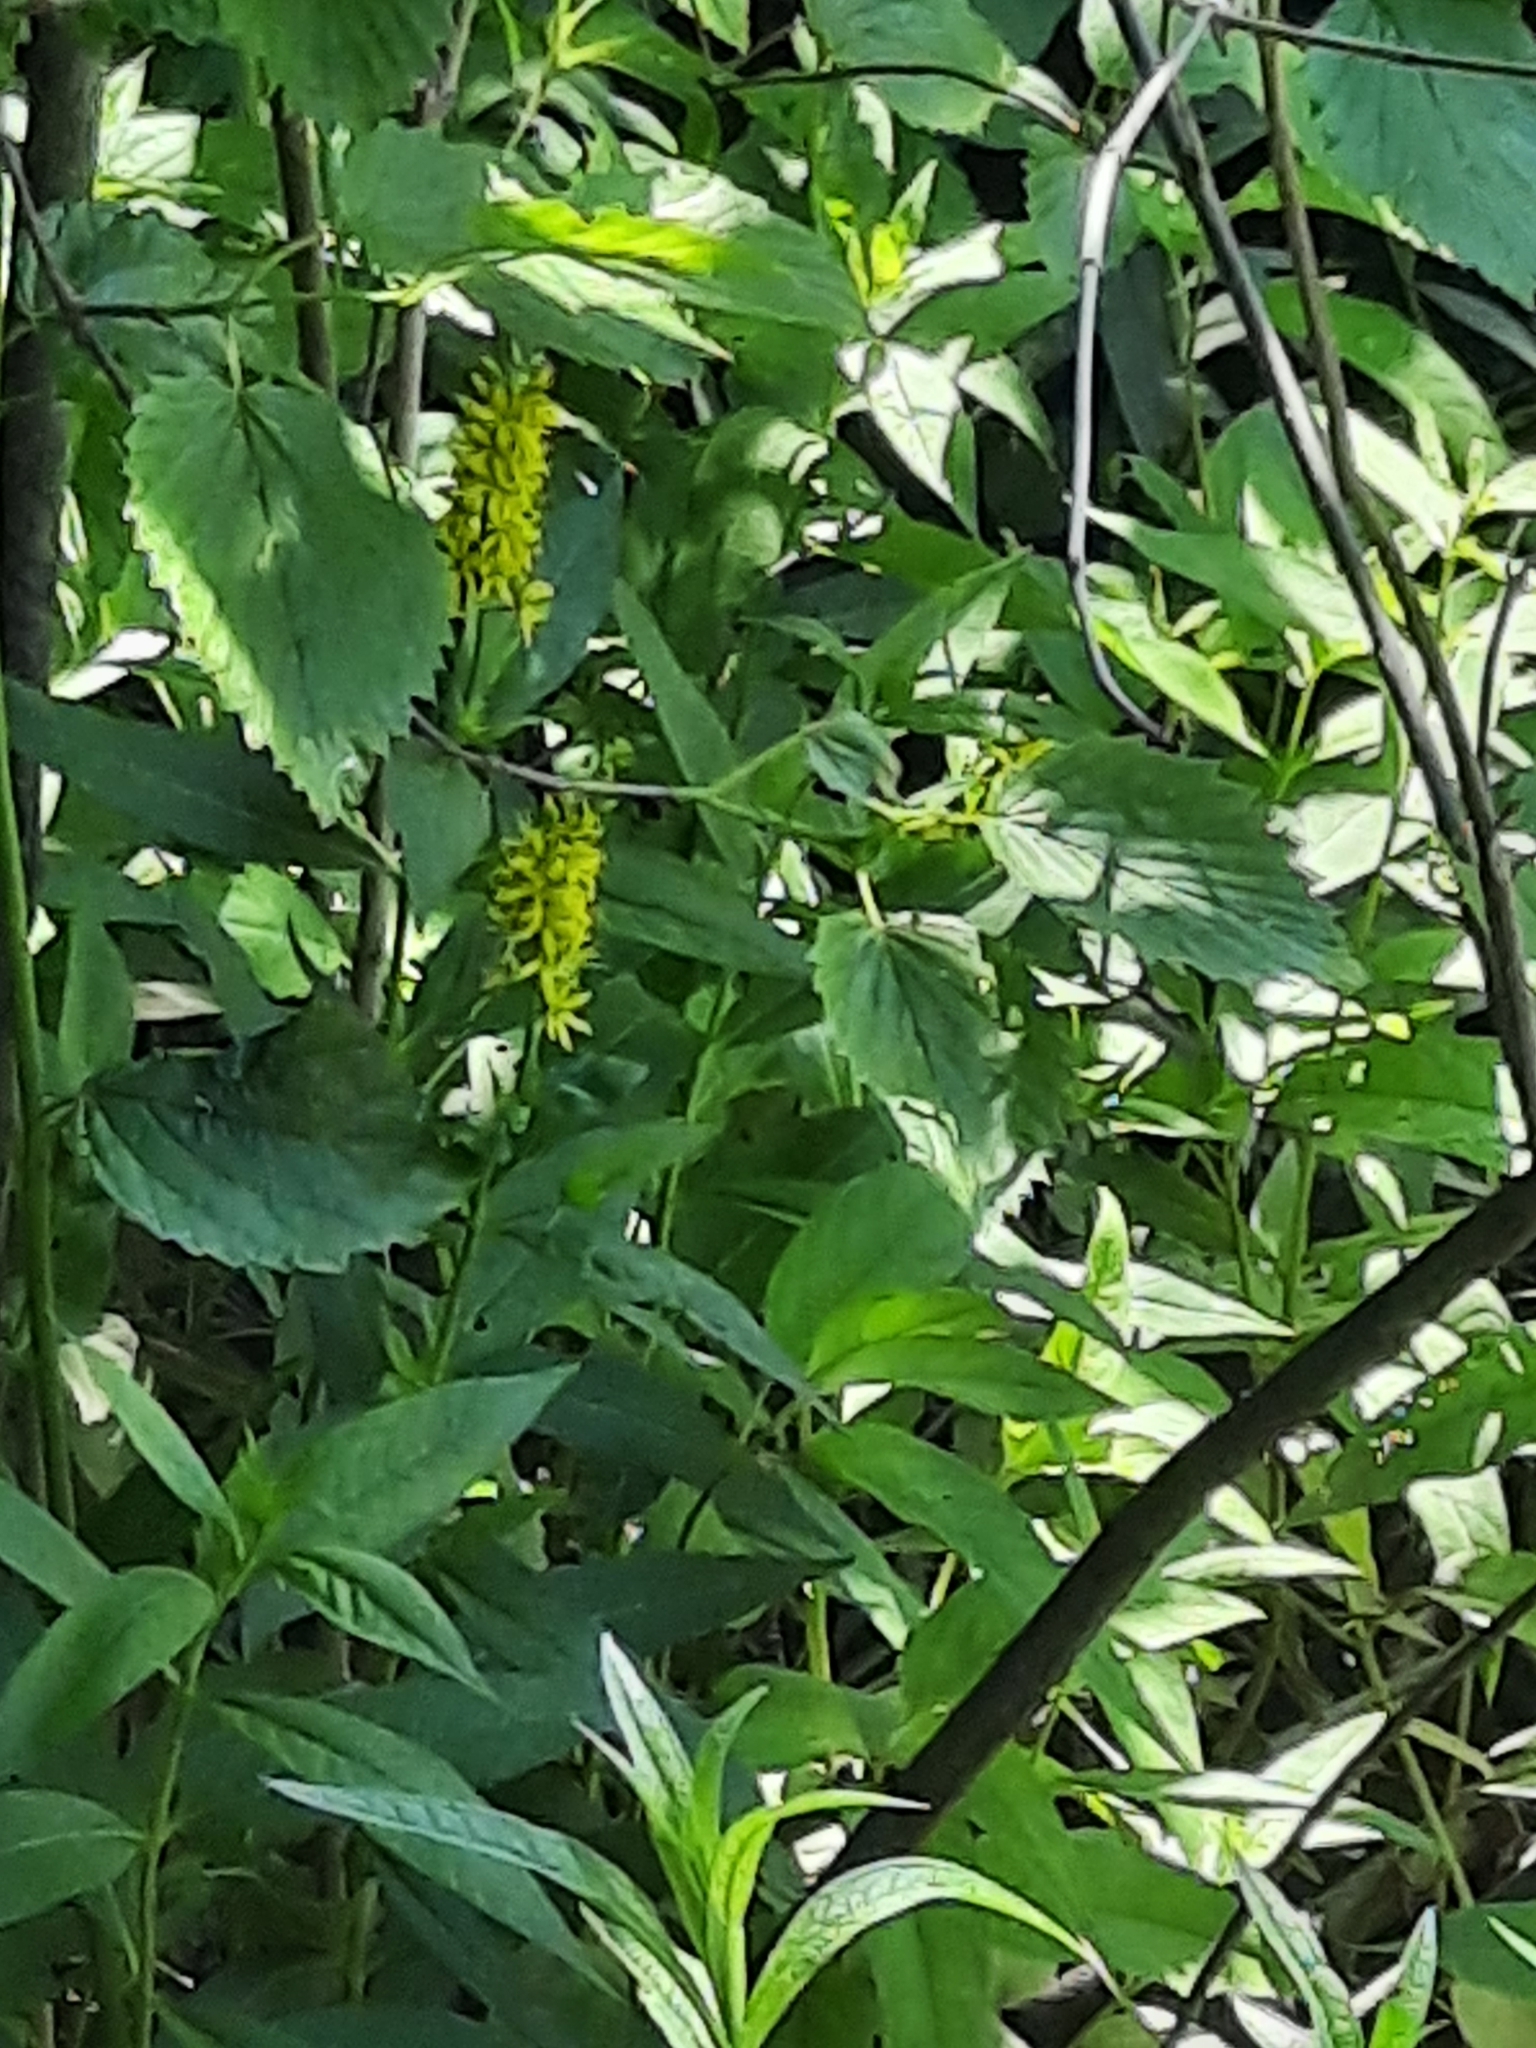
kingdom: Plantae
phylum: Tracheophyta
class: Magnoliopsida
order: Ericales
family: Primulaceae
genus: Lysimachia
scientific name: Lysimachia terrestris
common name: Lake loosestrife
